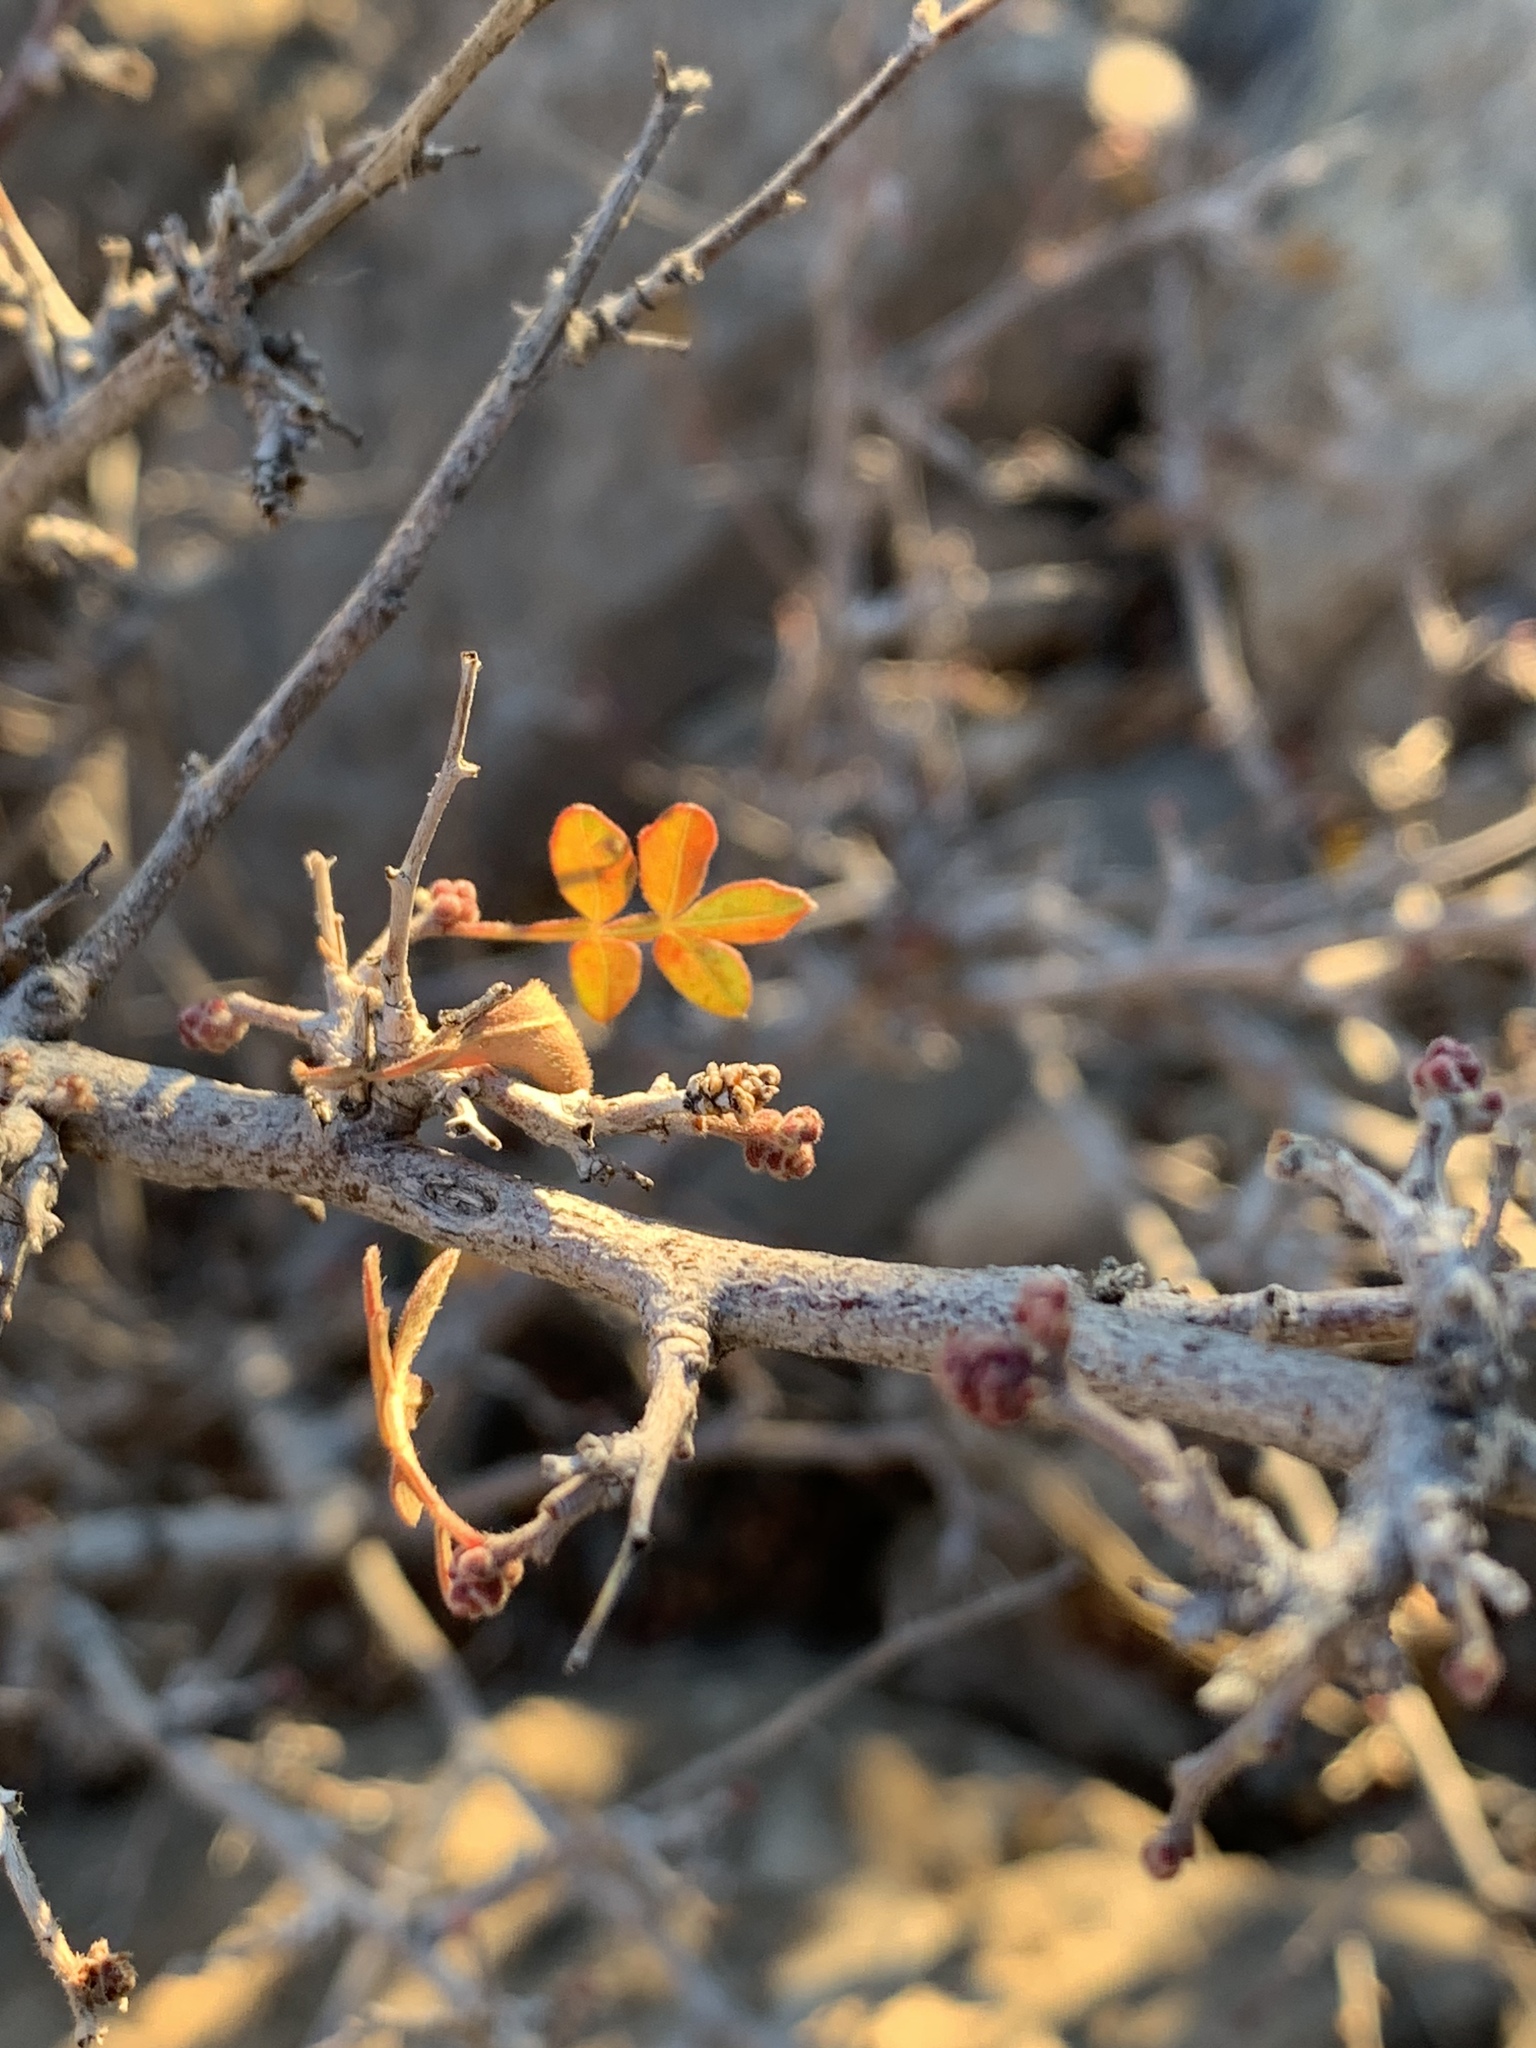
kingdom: Plantae
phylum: Tracheophyta
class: Magnoliopsida
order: Sapindales
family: Anacardiaceae
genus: Rhus
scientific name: Rhus microphylla
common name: Desert sumac
